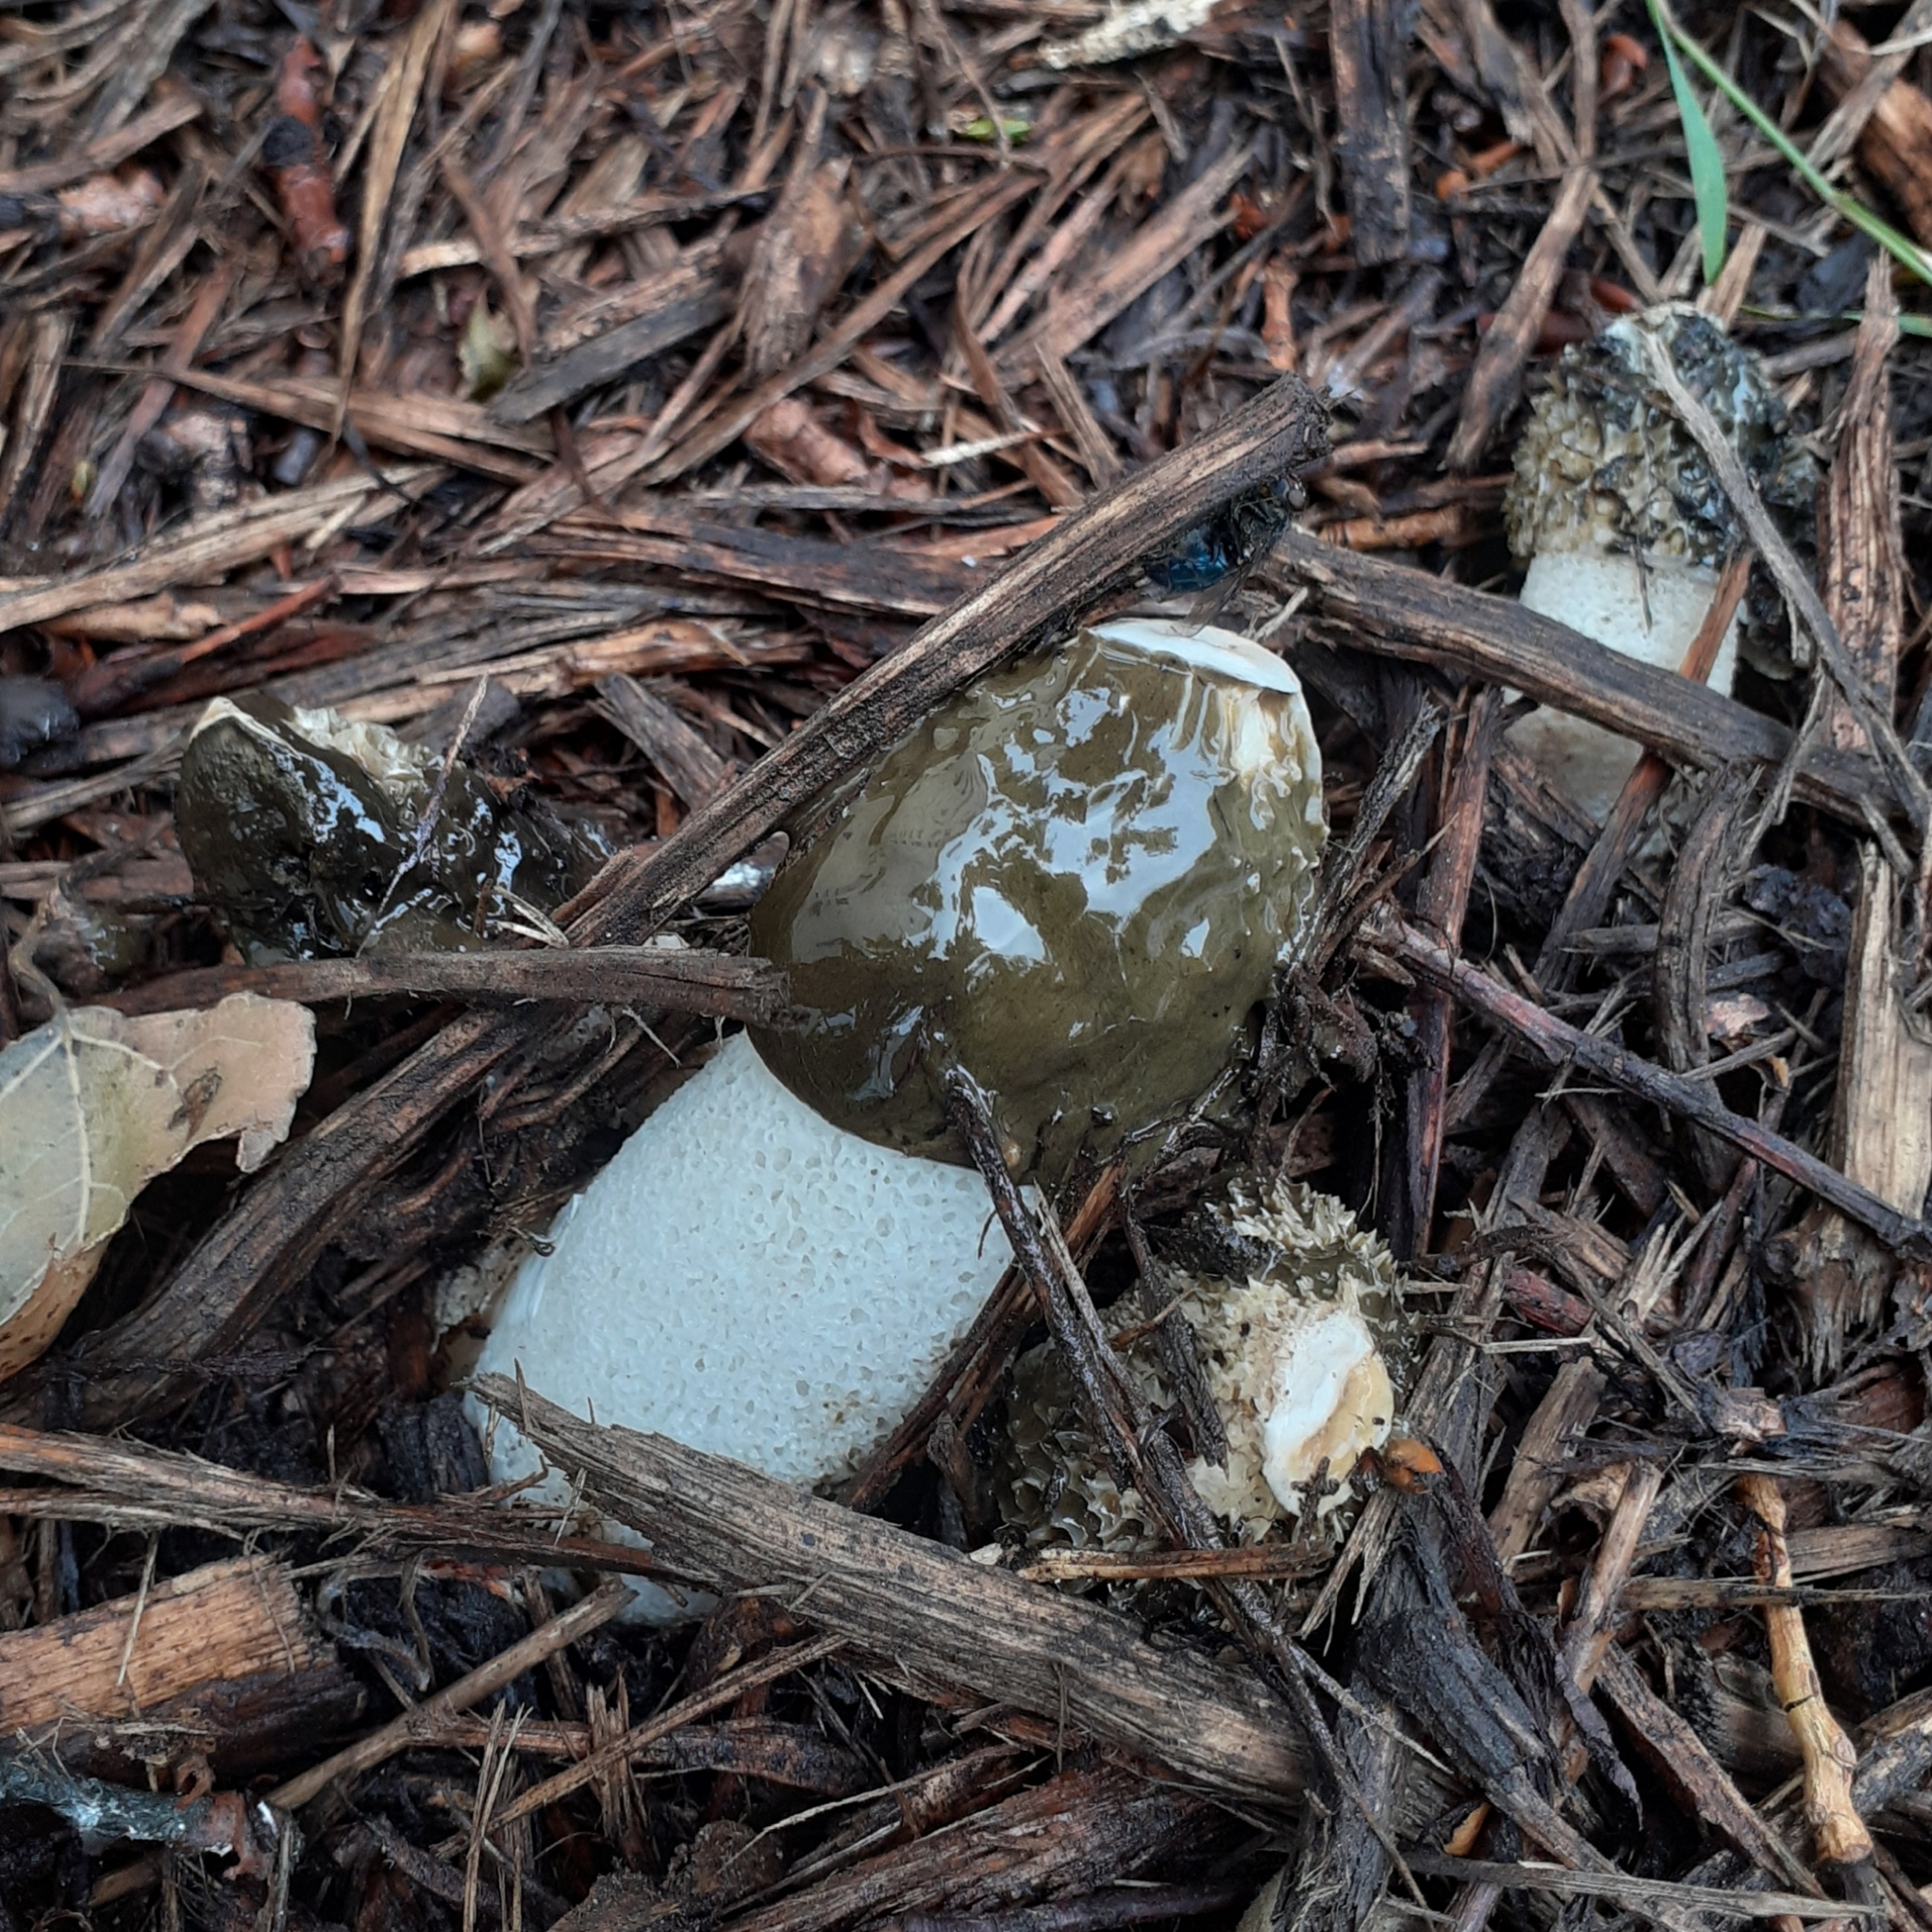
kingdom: Fungi
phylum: Basidiomycota
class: Agaricomycetes
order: Phallales
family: Phallaceae
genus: Phallus
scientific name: Phallus impudicus
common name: Common stinkhorn
